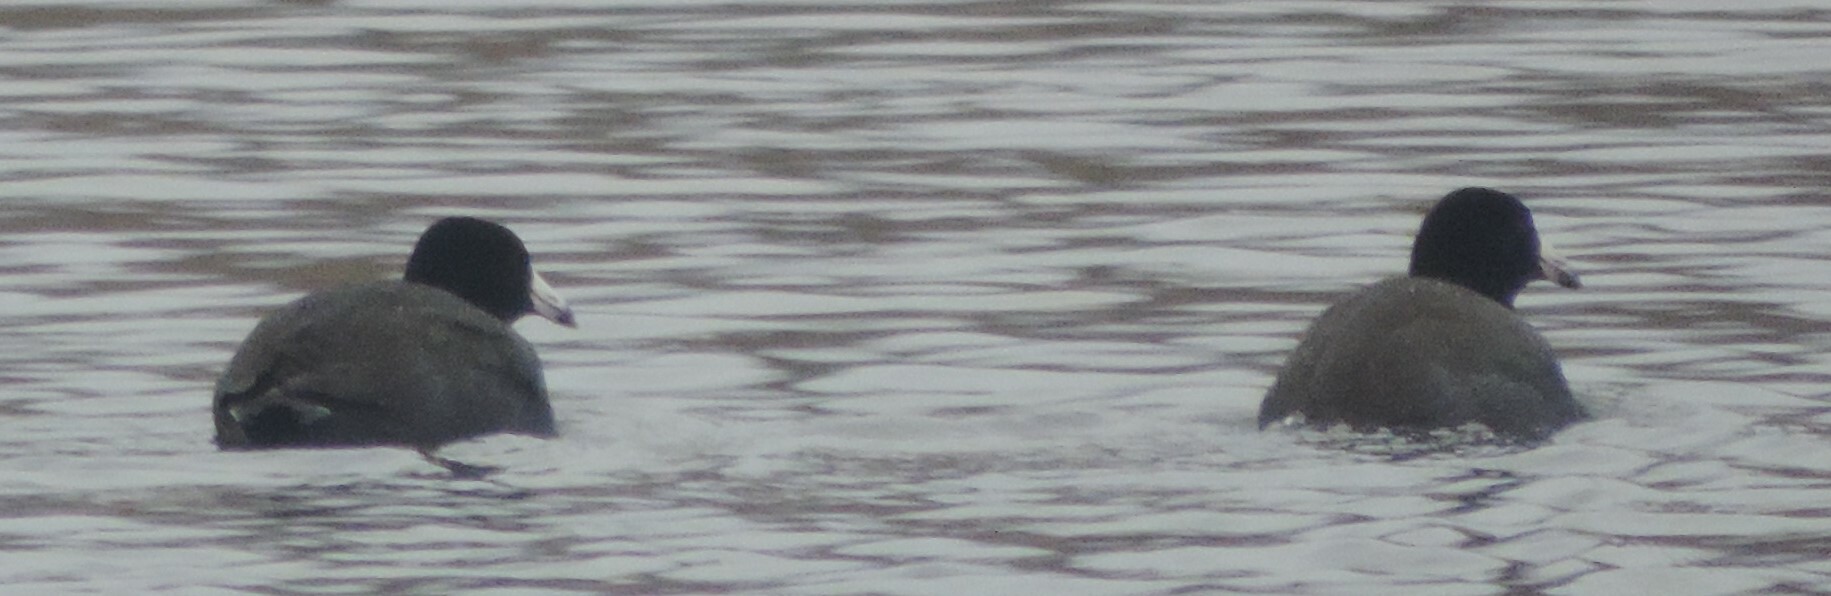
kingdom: Animalia
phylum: Chordata
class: Aves
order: Gruiformes
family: Rallidae
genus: Fulica
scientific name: Fulica americana
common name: American coot
